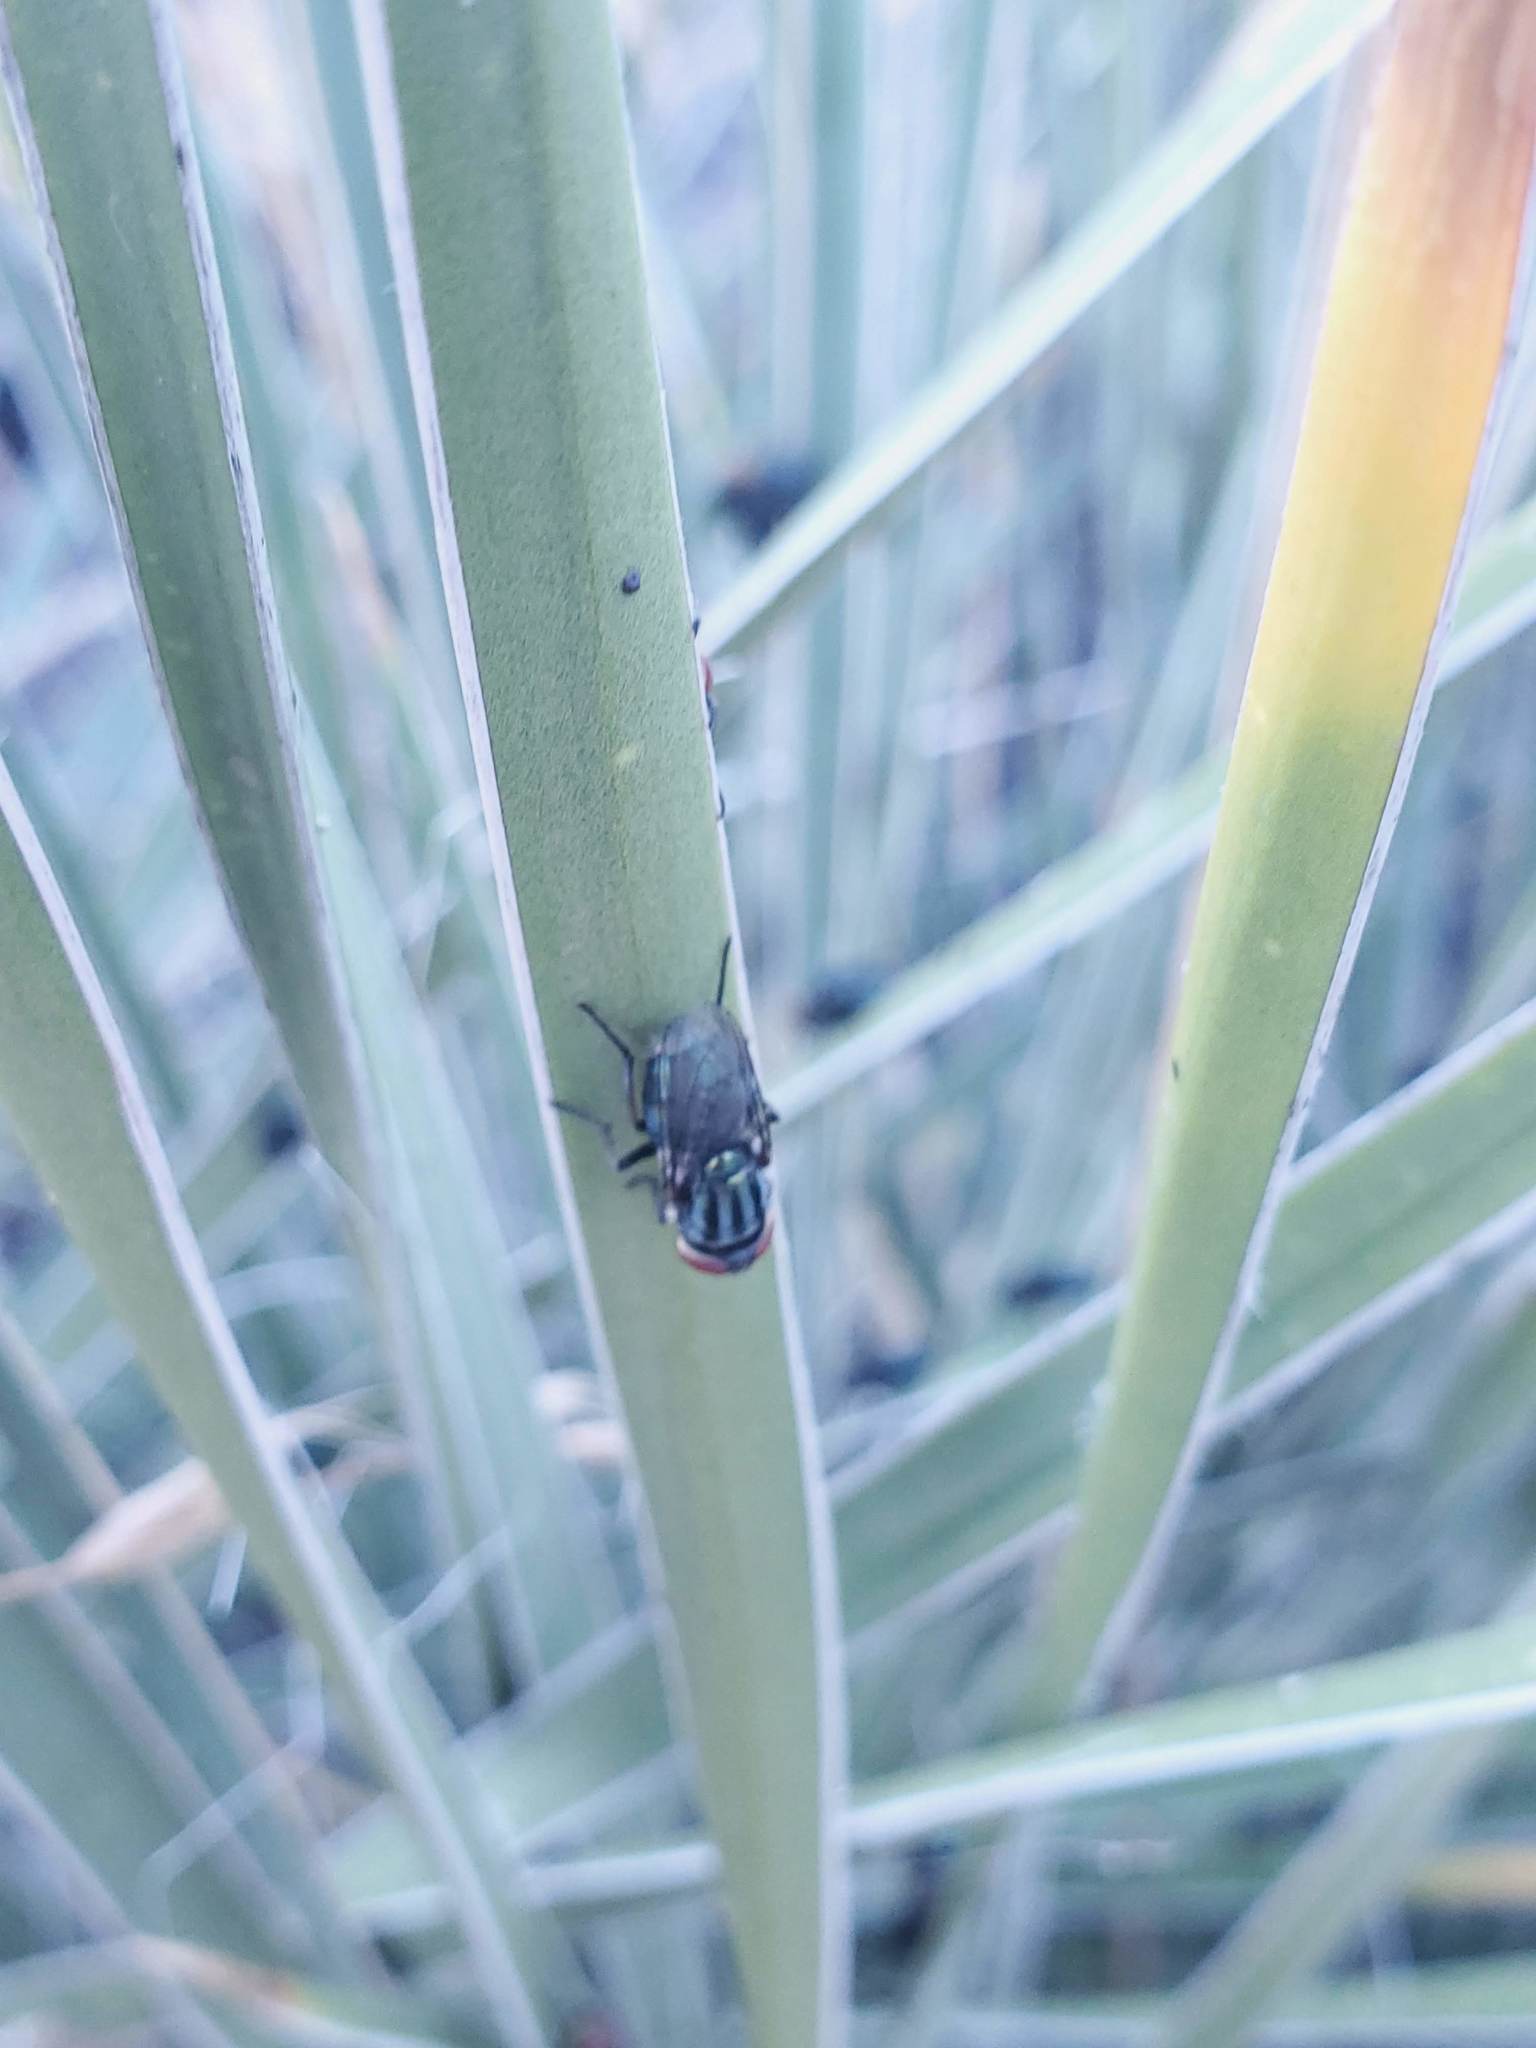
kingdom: Animalia
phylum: Arthropoda
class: Insecta
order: Diptera
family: Calliphoridae
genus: Cochliomyia
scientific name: Cochliomyia macellaria
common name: Secondary screwworm
